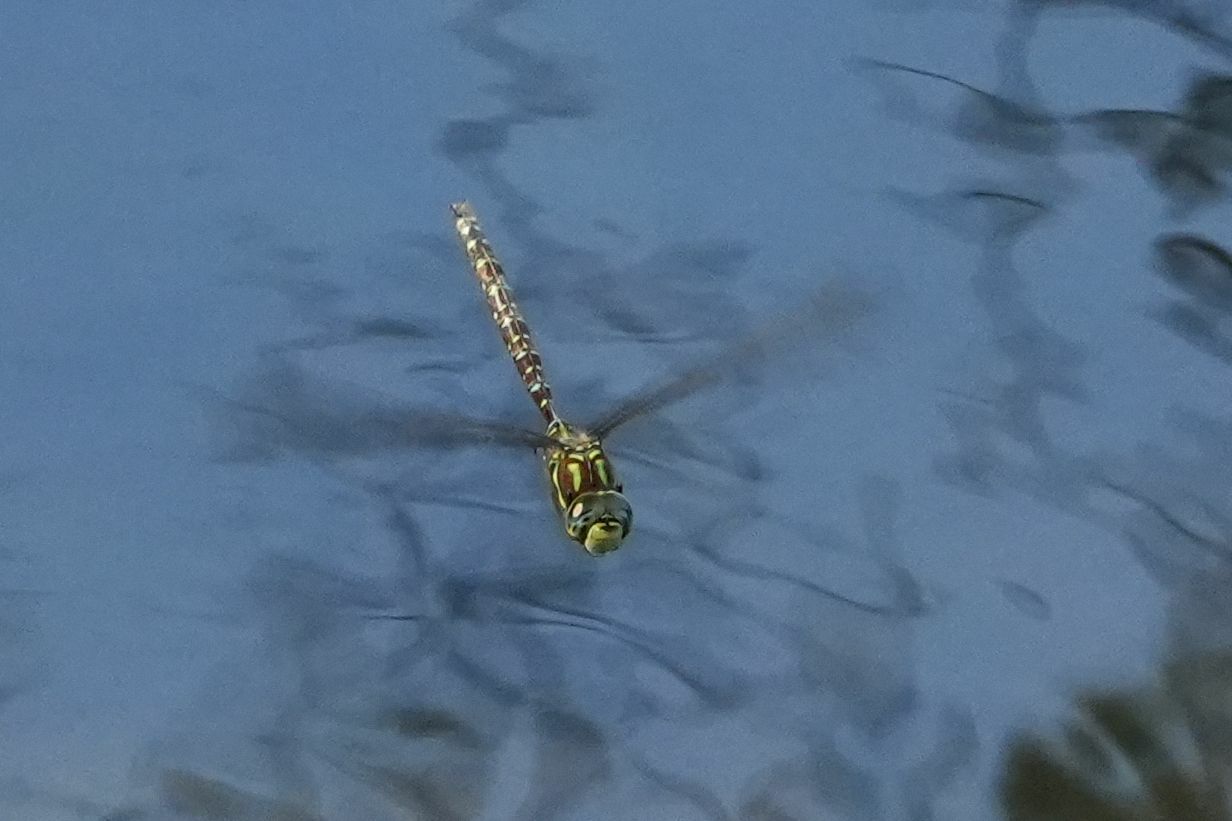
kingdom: Animalia
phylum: Arthropoda
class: Insecta
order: Odonata
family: Aeshnidae
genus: Aeshna
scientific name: Aeshna umbrosa
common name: Shadow darner
